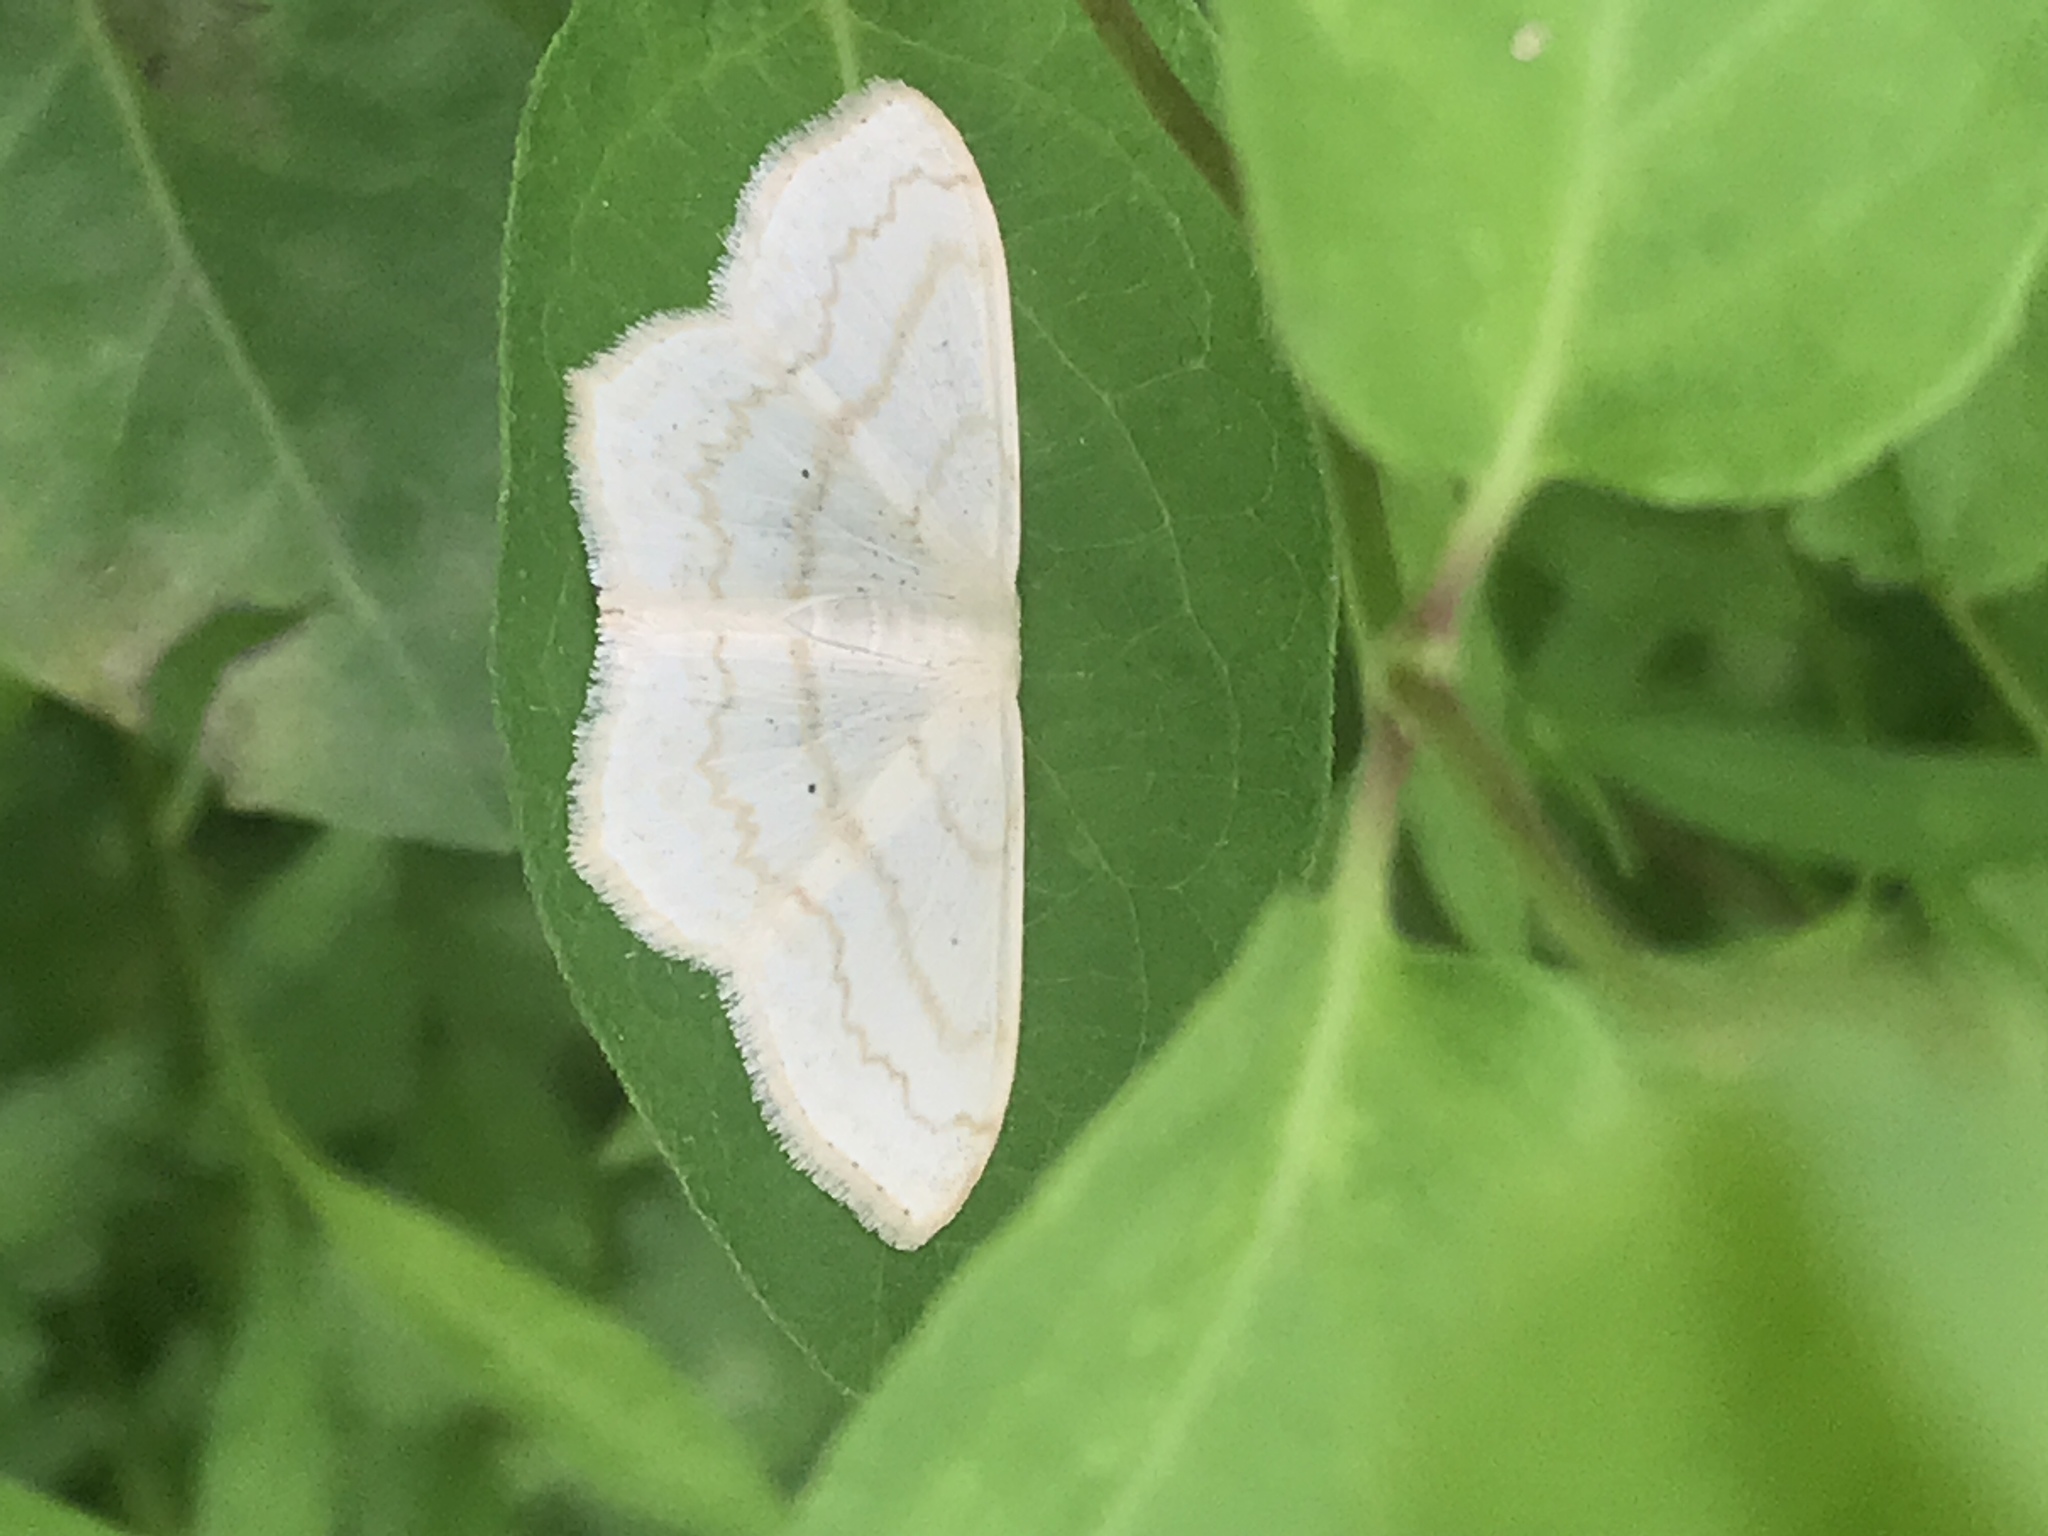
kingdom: Animalia
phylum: Arthropoda
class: Insecta
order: Lepidoptera
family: Geometridae
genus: Scopula
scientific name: Scopula limboundata
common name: Large lace border
